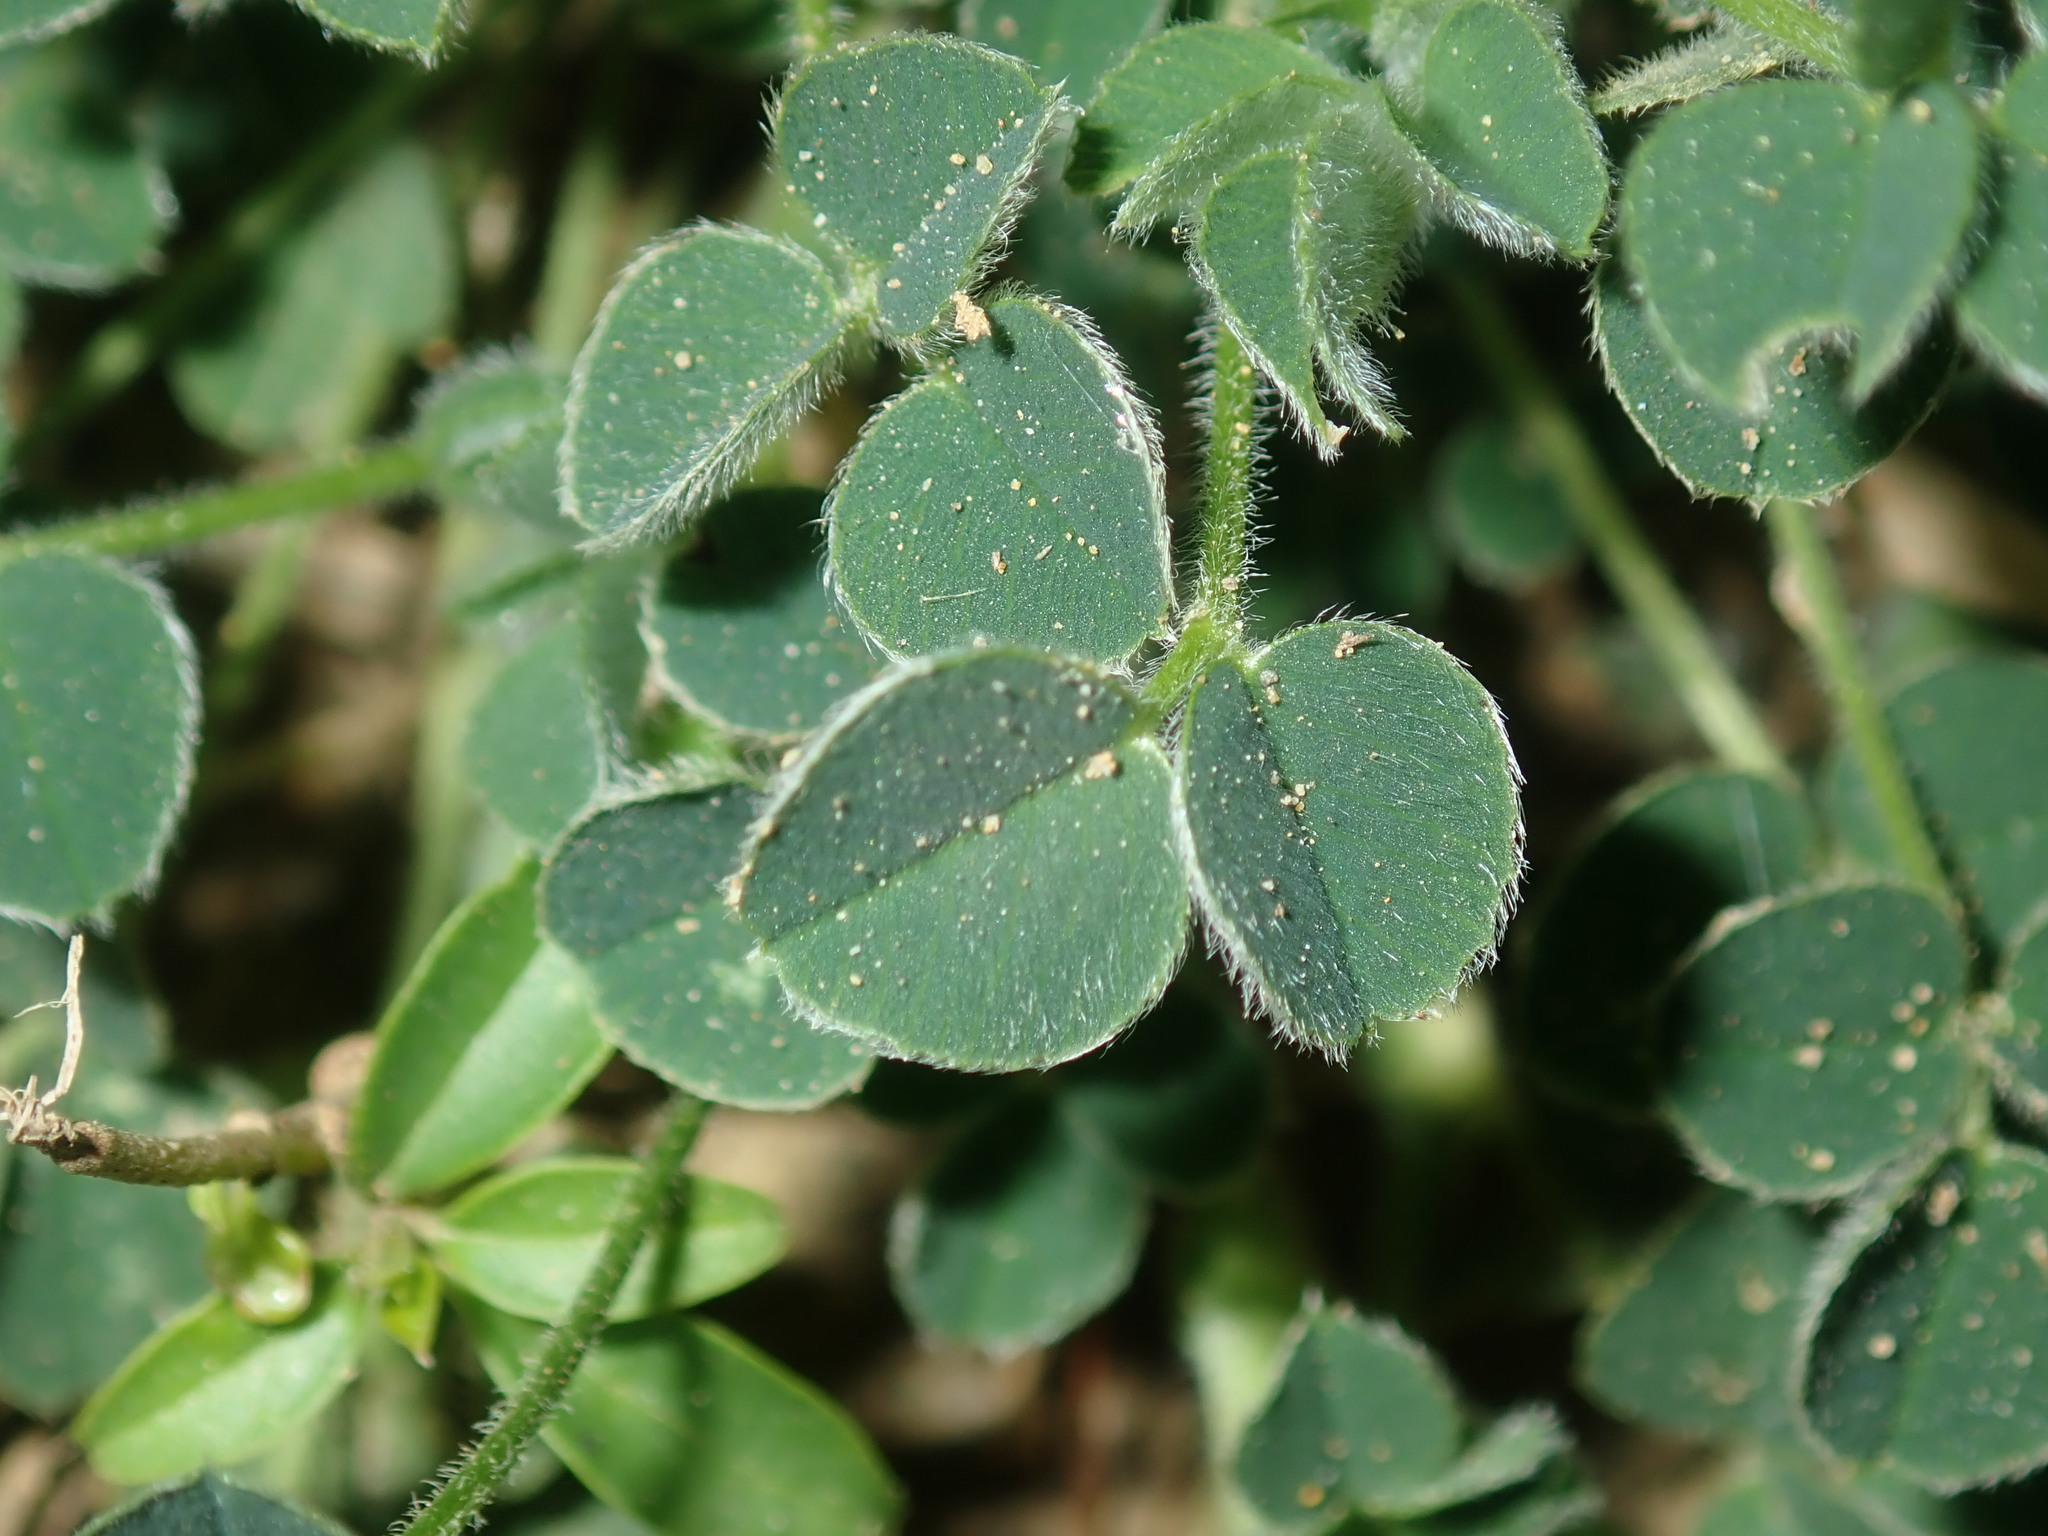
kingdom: Plantae
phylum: Tracheophyta
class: Magnoliopsida
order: Fabales
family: Fabaceae
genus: Medicago
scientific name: Medicago lupulina
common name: Black medick
